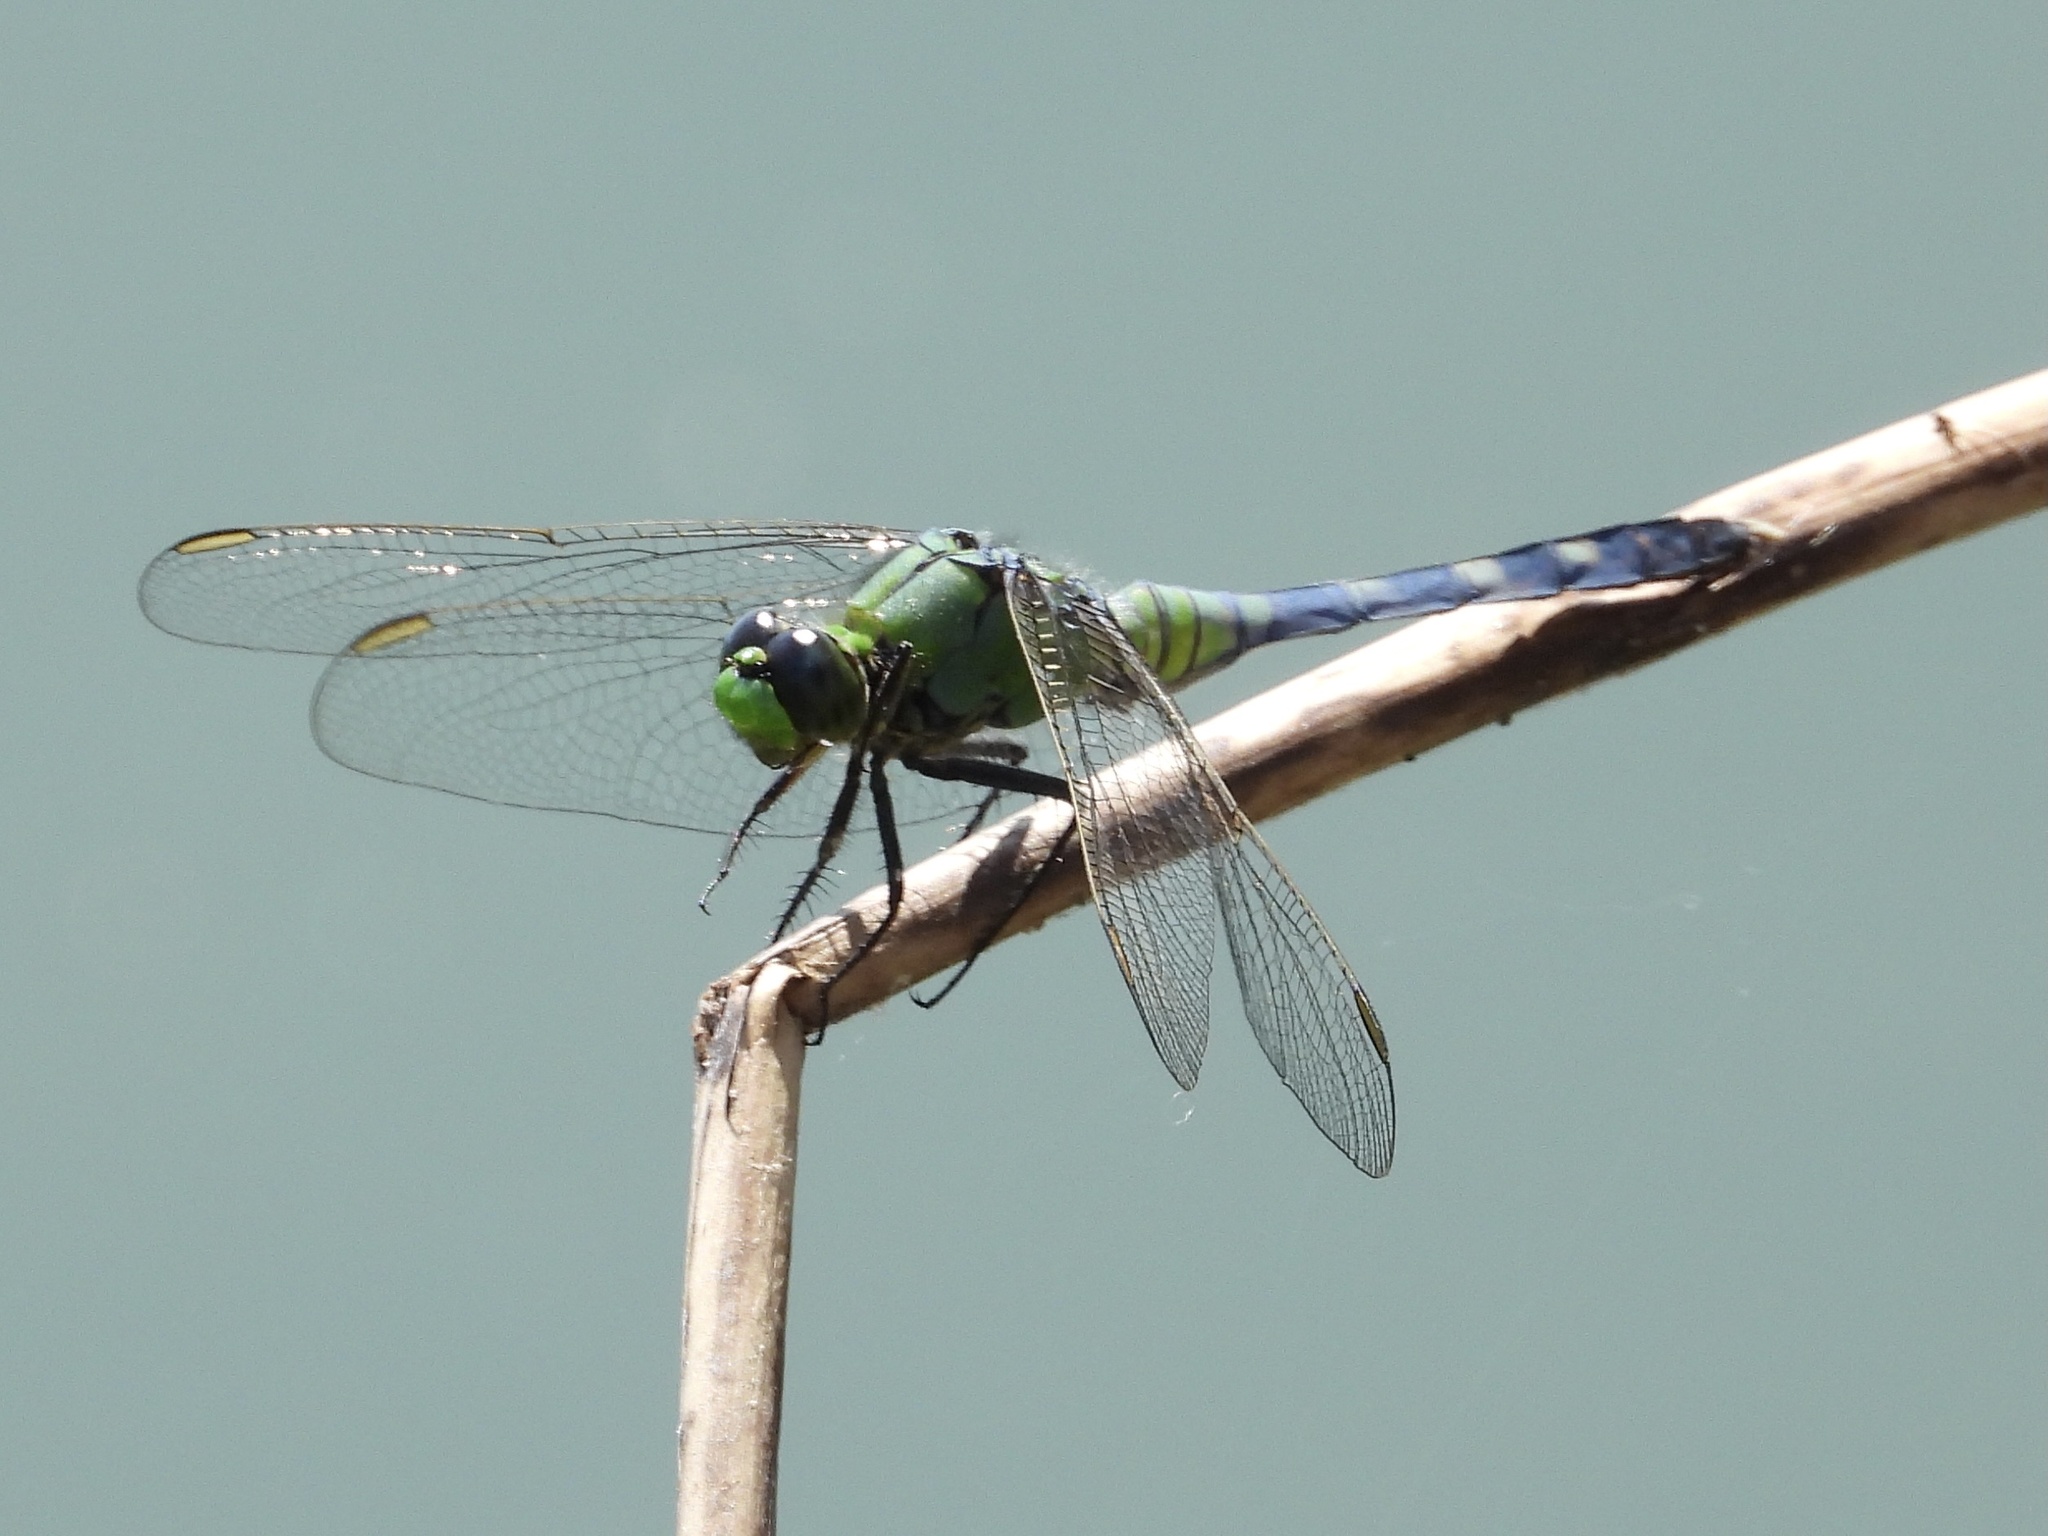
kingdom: Animalia
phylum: Arthropoda
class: Insecta
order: Odonata
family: Libellulidae
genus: Erythemis
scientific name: Erythemis simplicicollis
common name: Eastern pondhawk
